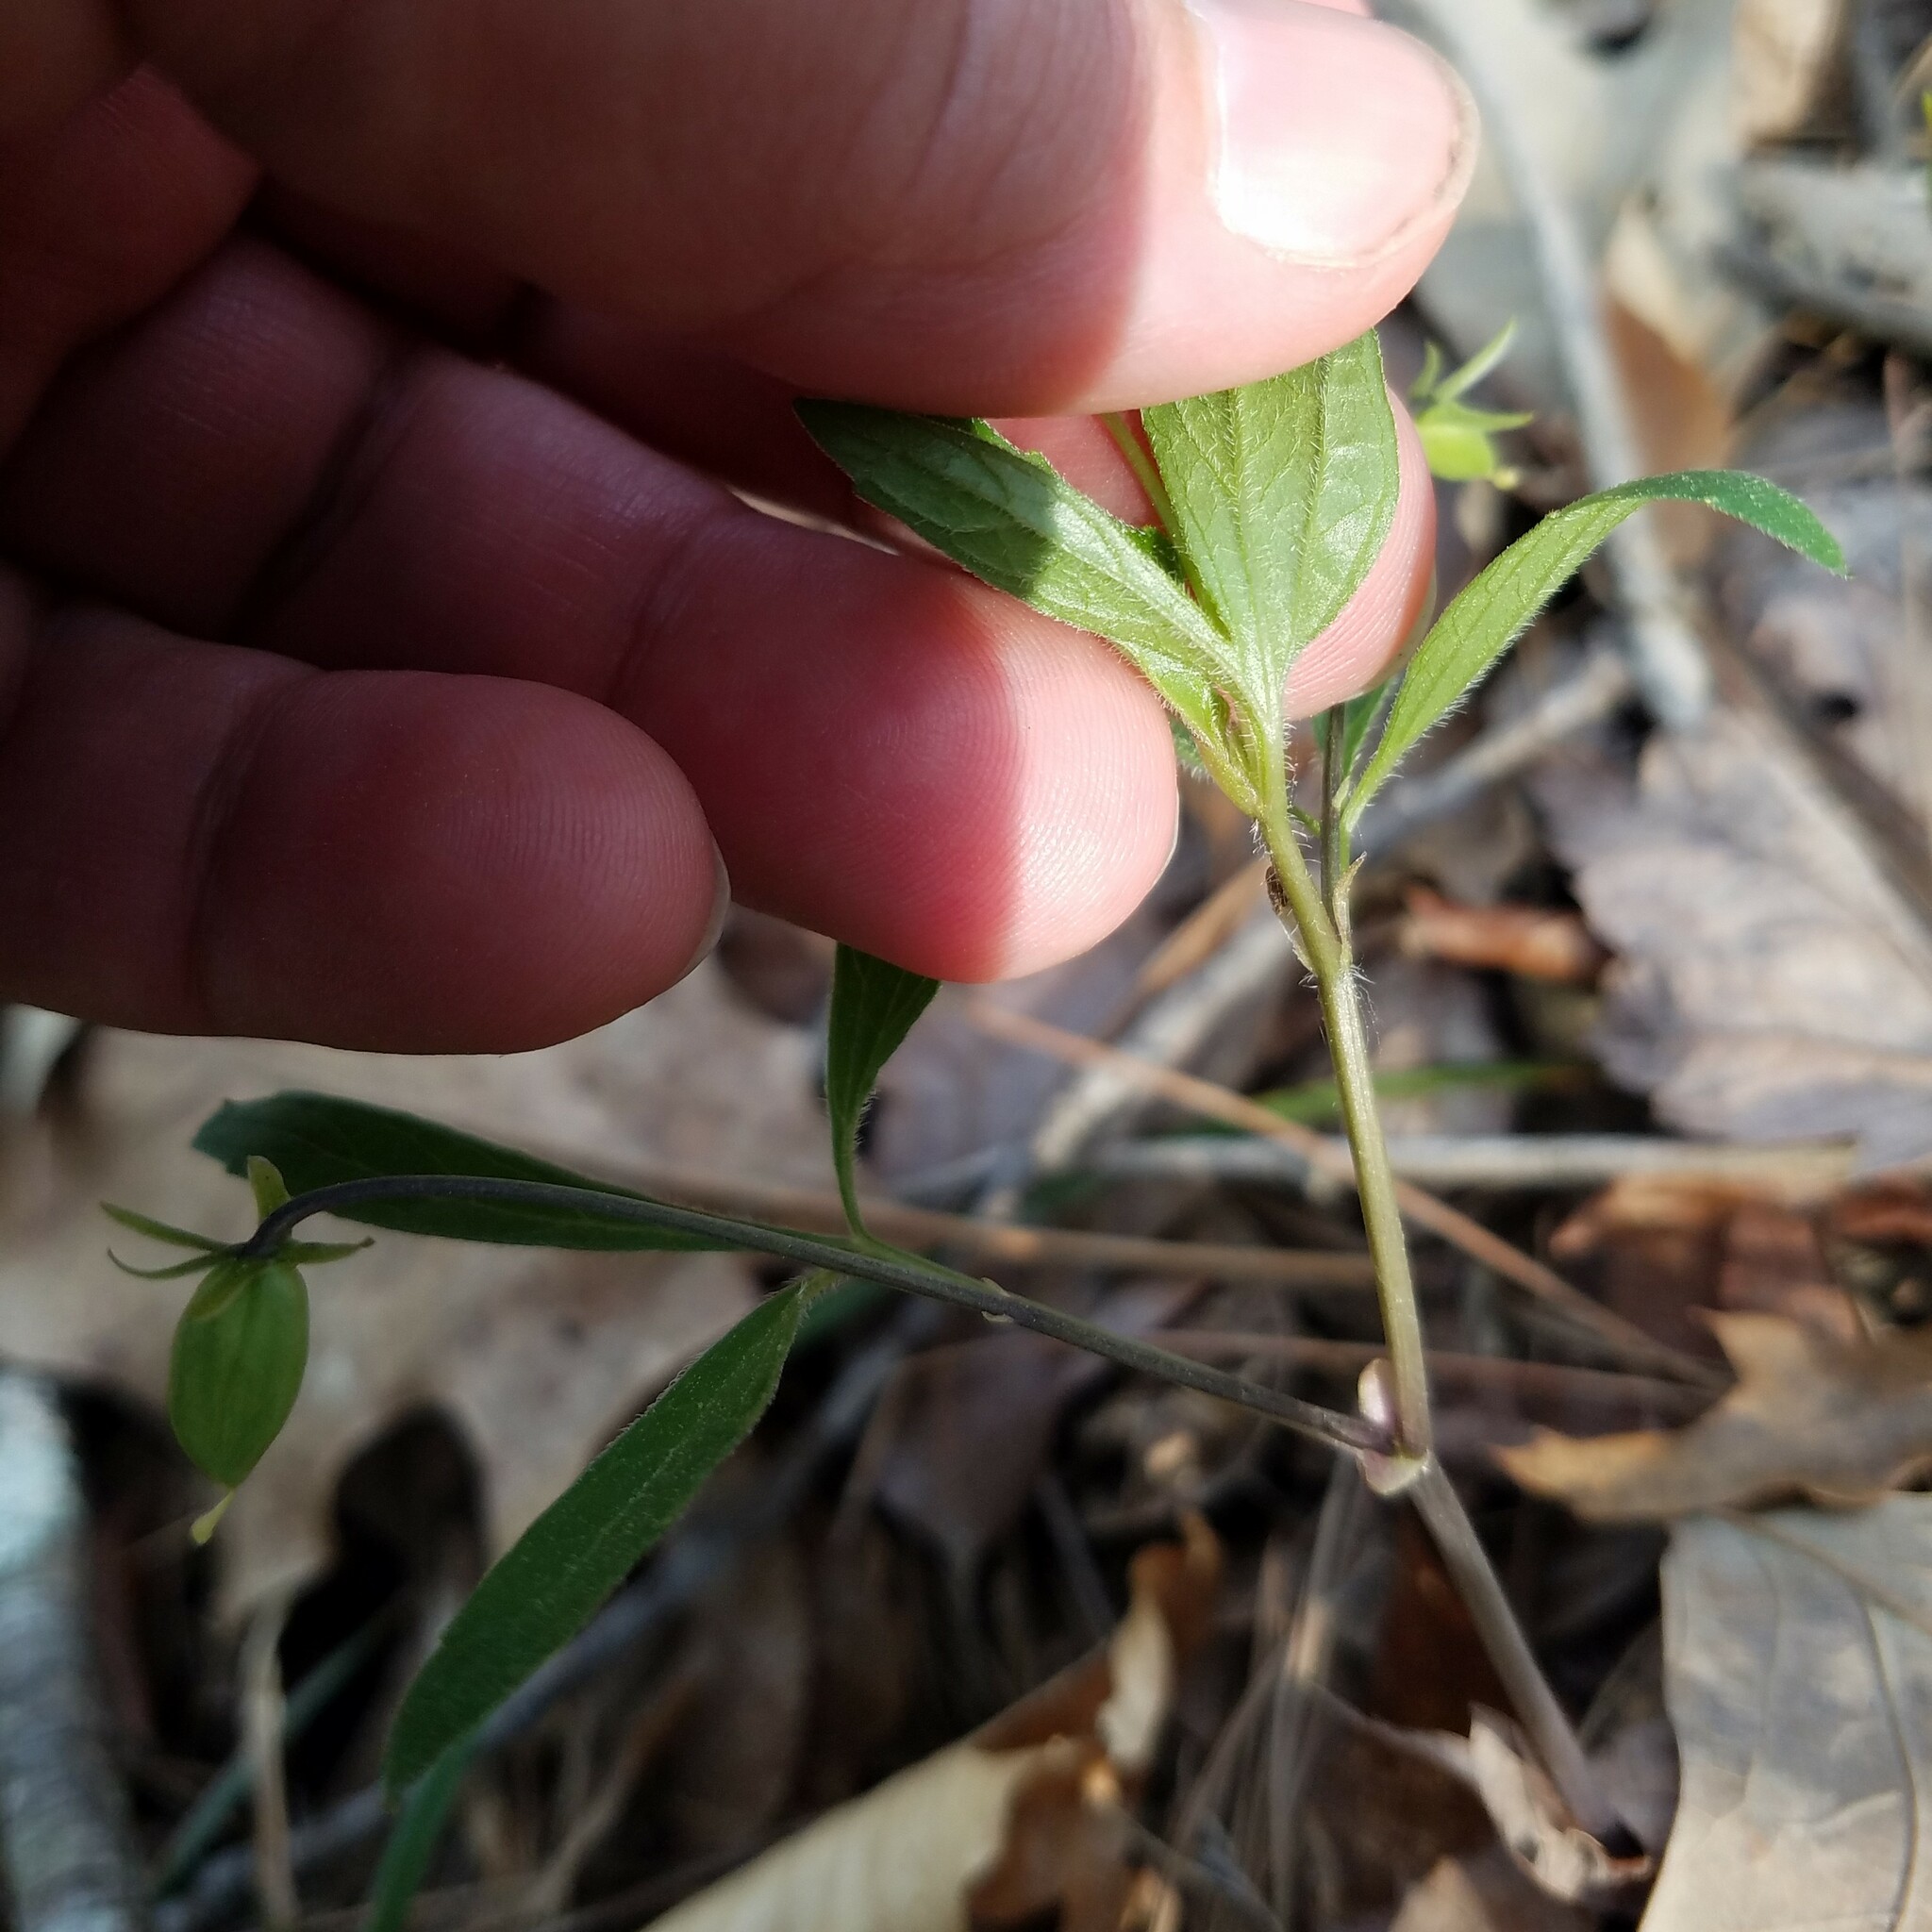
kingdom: Plantae
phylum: Tracheophyta
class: Magnoliopsida
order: Malpighiales
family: Violaceae
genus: Viola
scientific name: Viola tripartita
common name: Three-part violet
